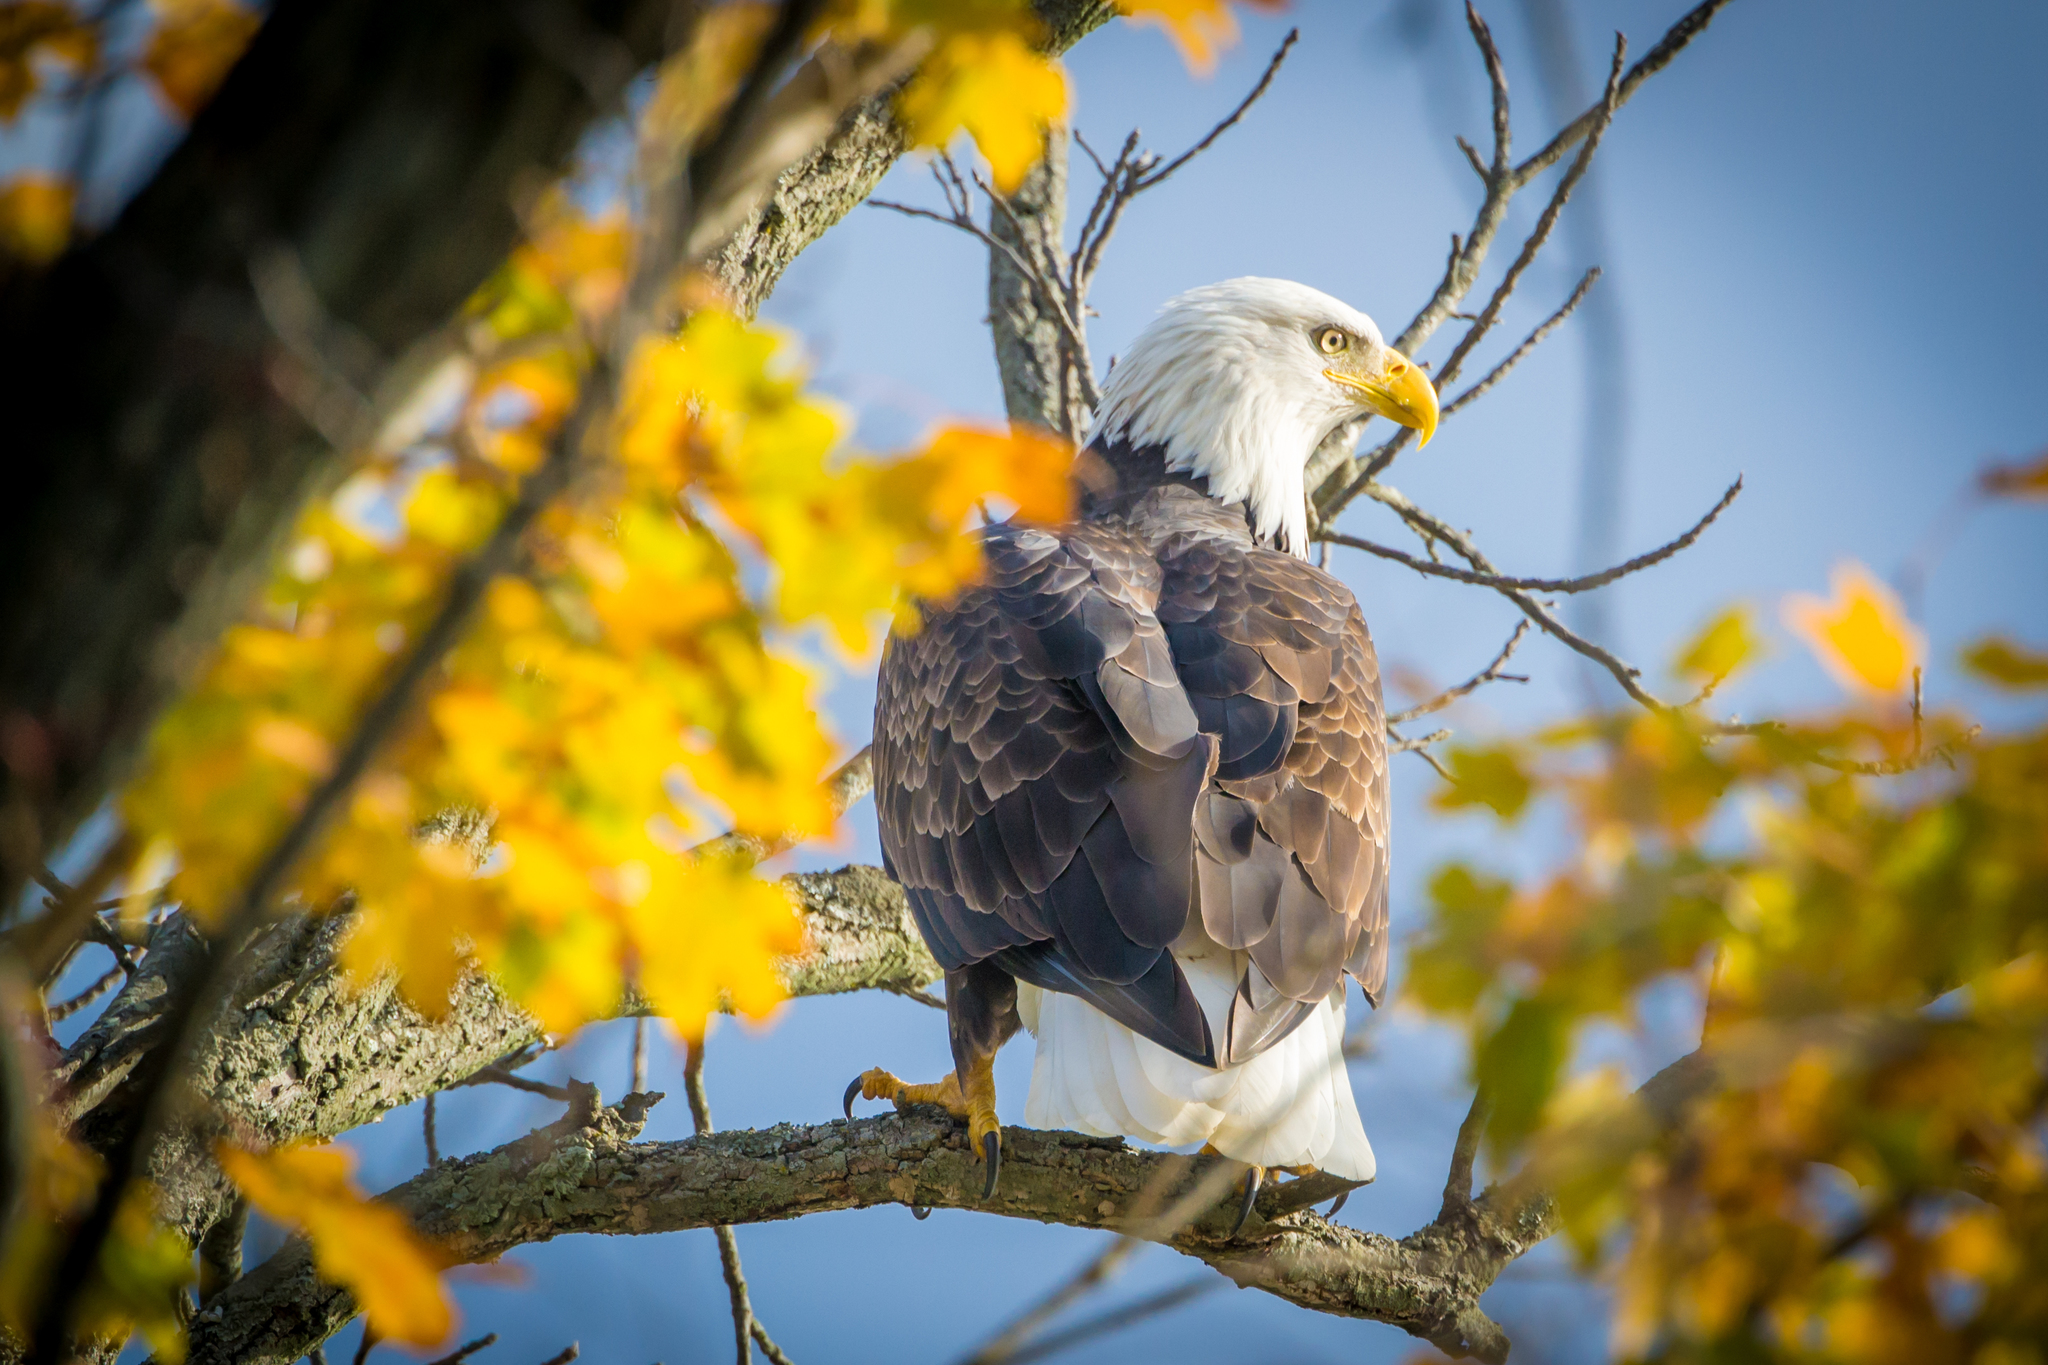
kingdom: Animalia
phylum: Chordata
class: Aves
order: Accipitriformes
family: Accipitridae
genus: Haliaeetus
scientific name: Haliaeetus leucocephalus
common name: Bald eagle
